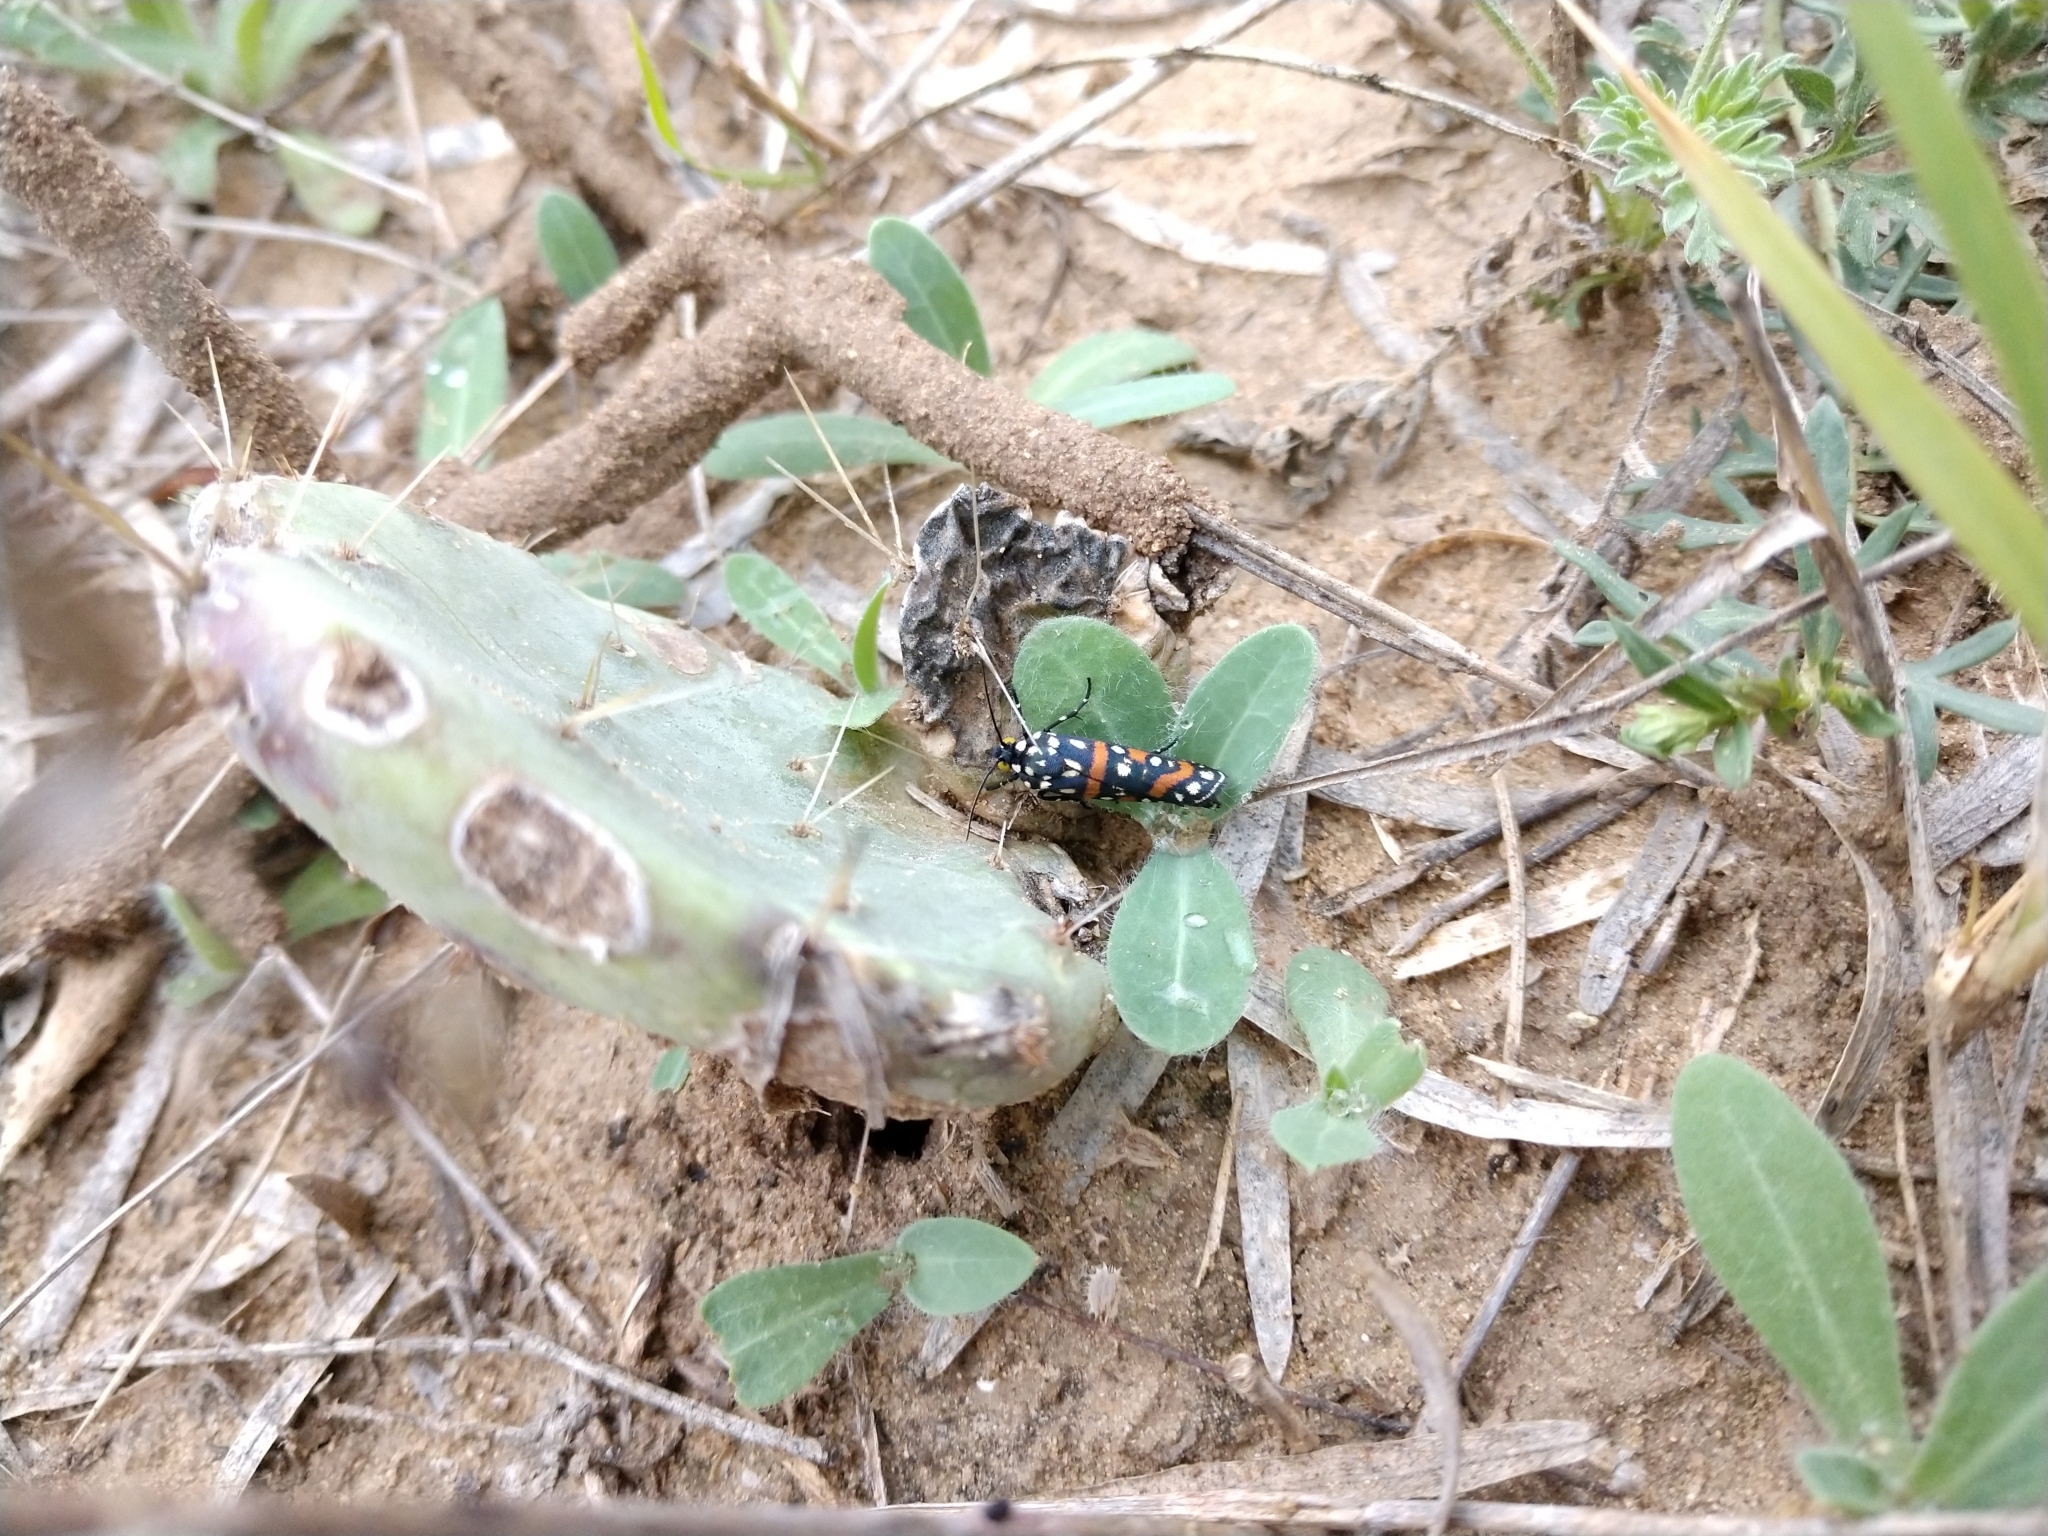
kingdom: Animalia
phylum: Arthropoda
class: Insecta
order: Lepidoptera
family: Noctuidae
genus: Cydosia
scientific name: Cydosia aurivitta
